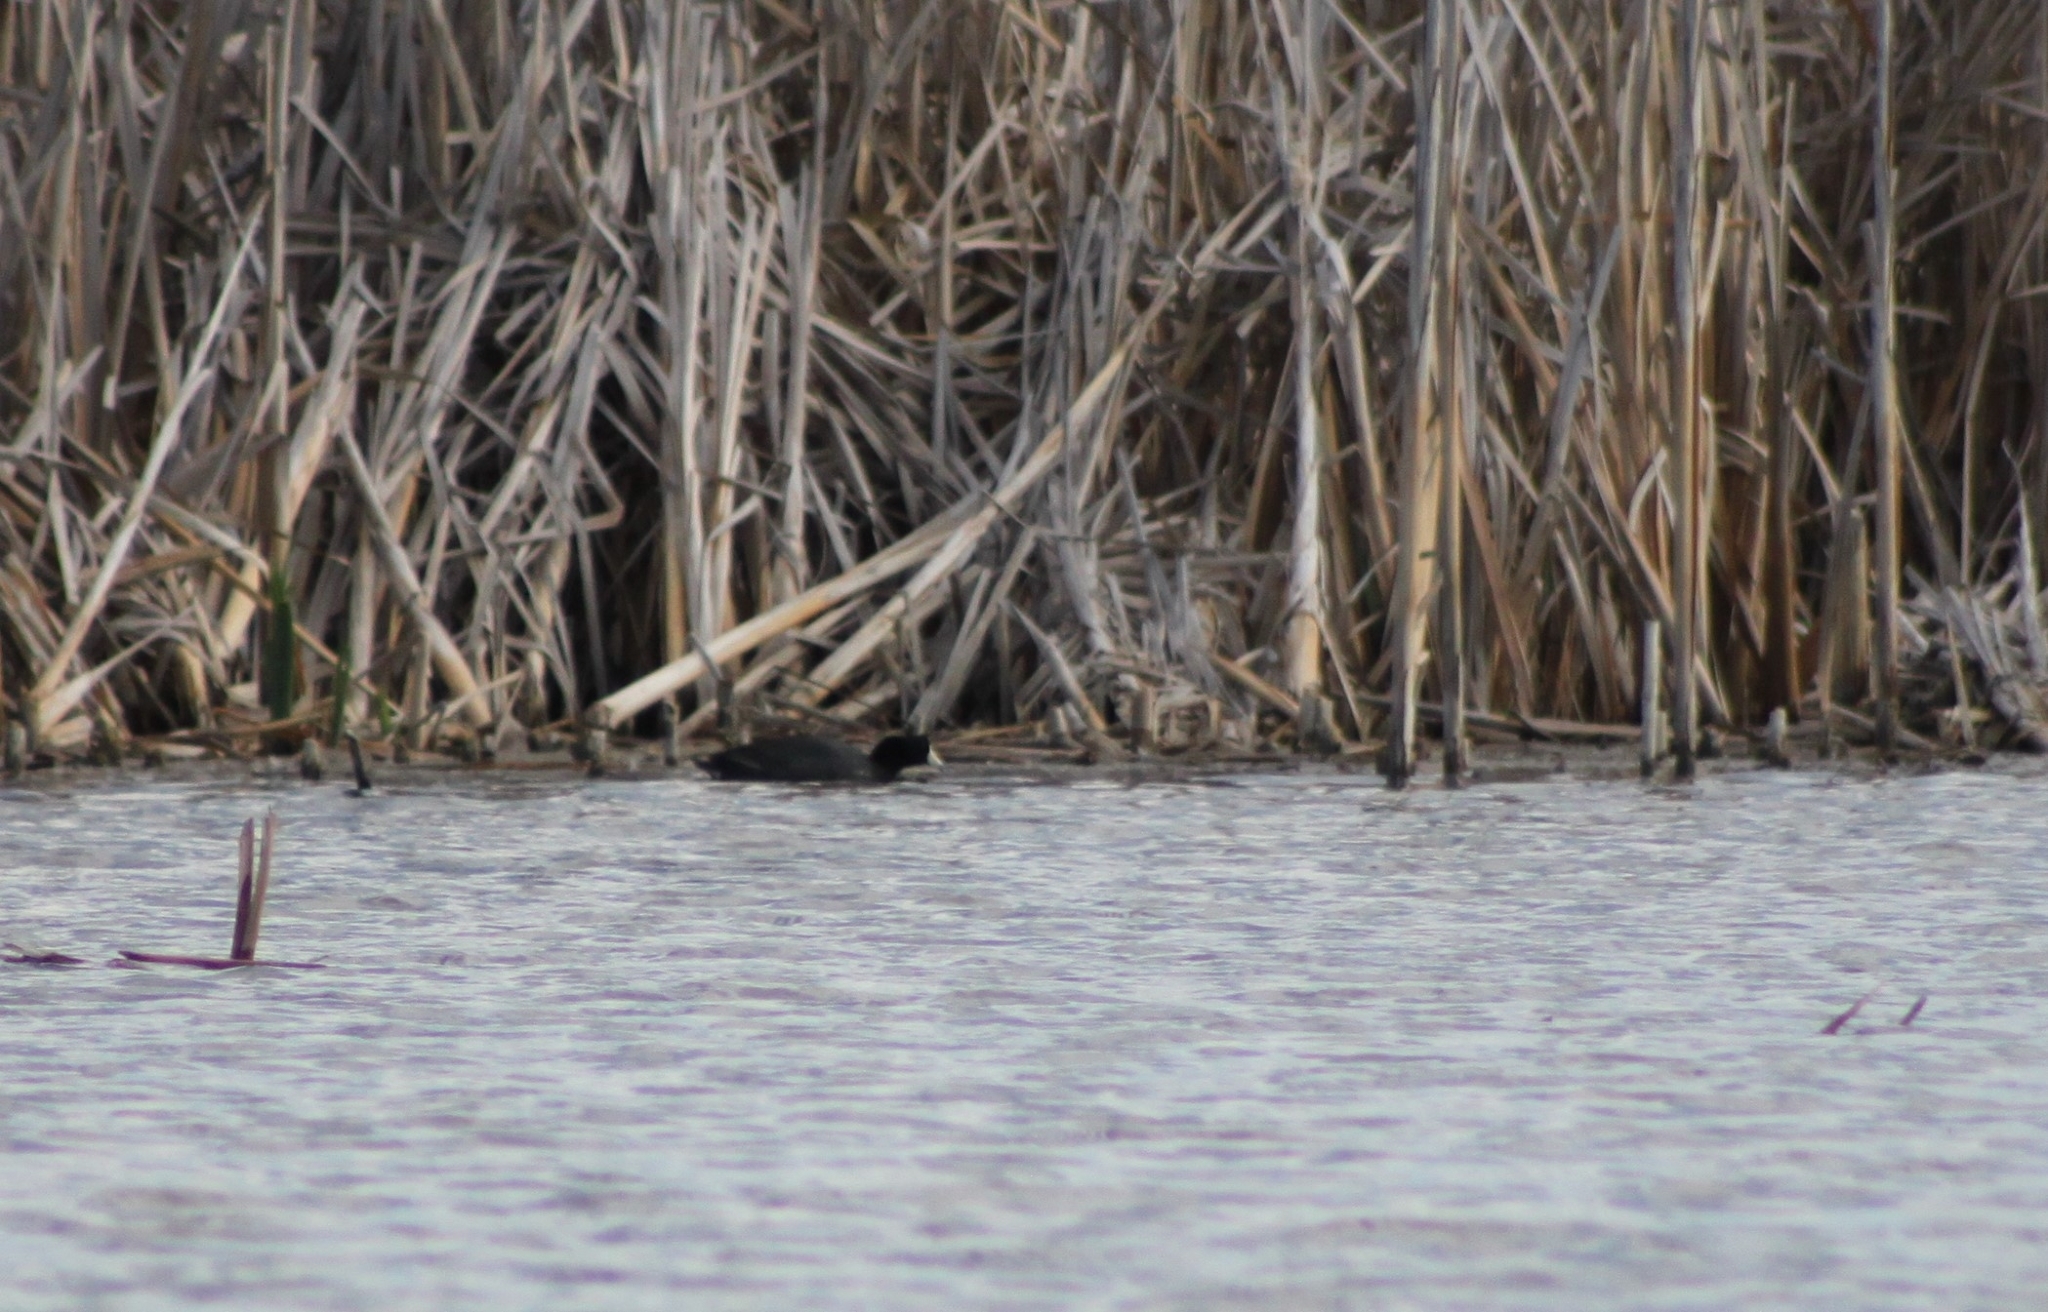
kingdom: Animalia
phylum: Chordata
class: Aves
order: Gruiformes
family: Rallidae
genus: Fulica
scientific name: Fulica americana
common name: American coot
